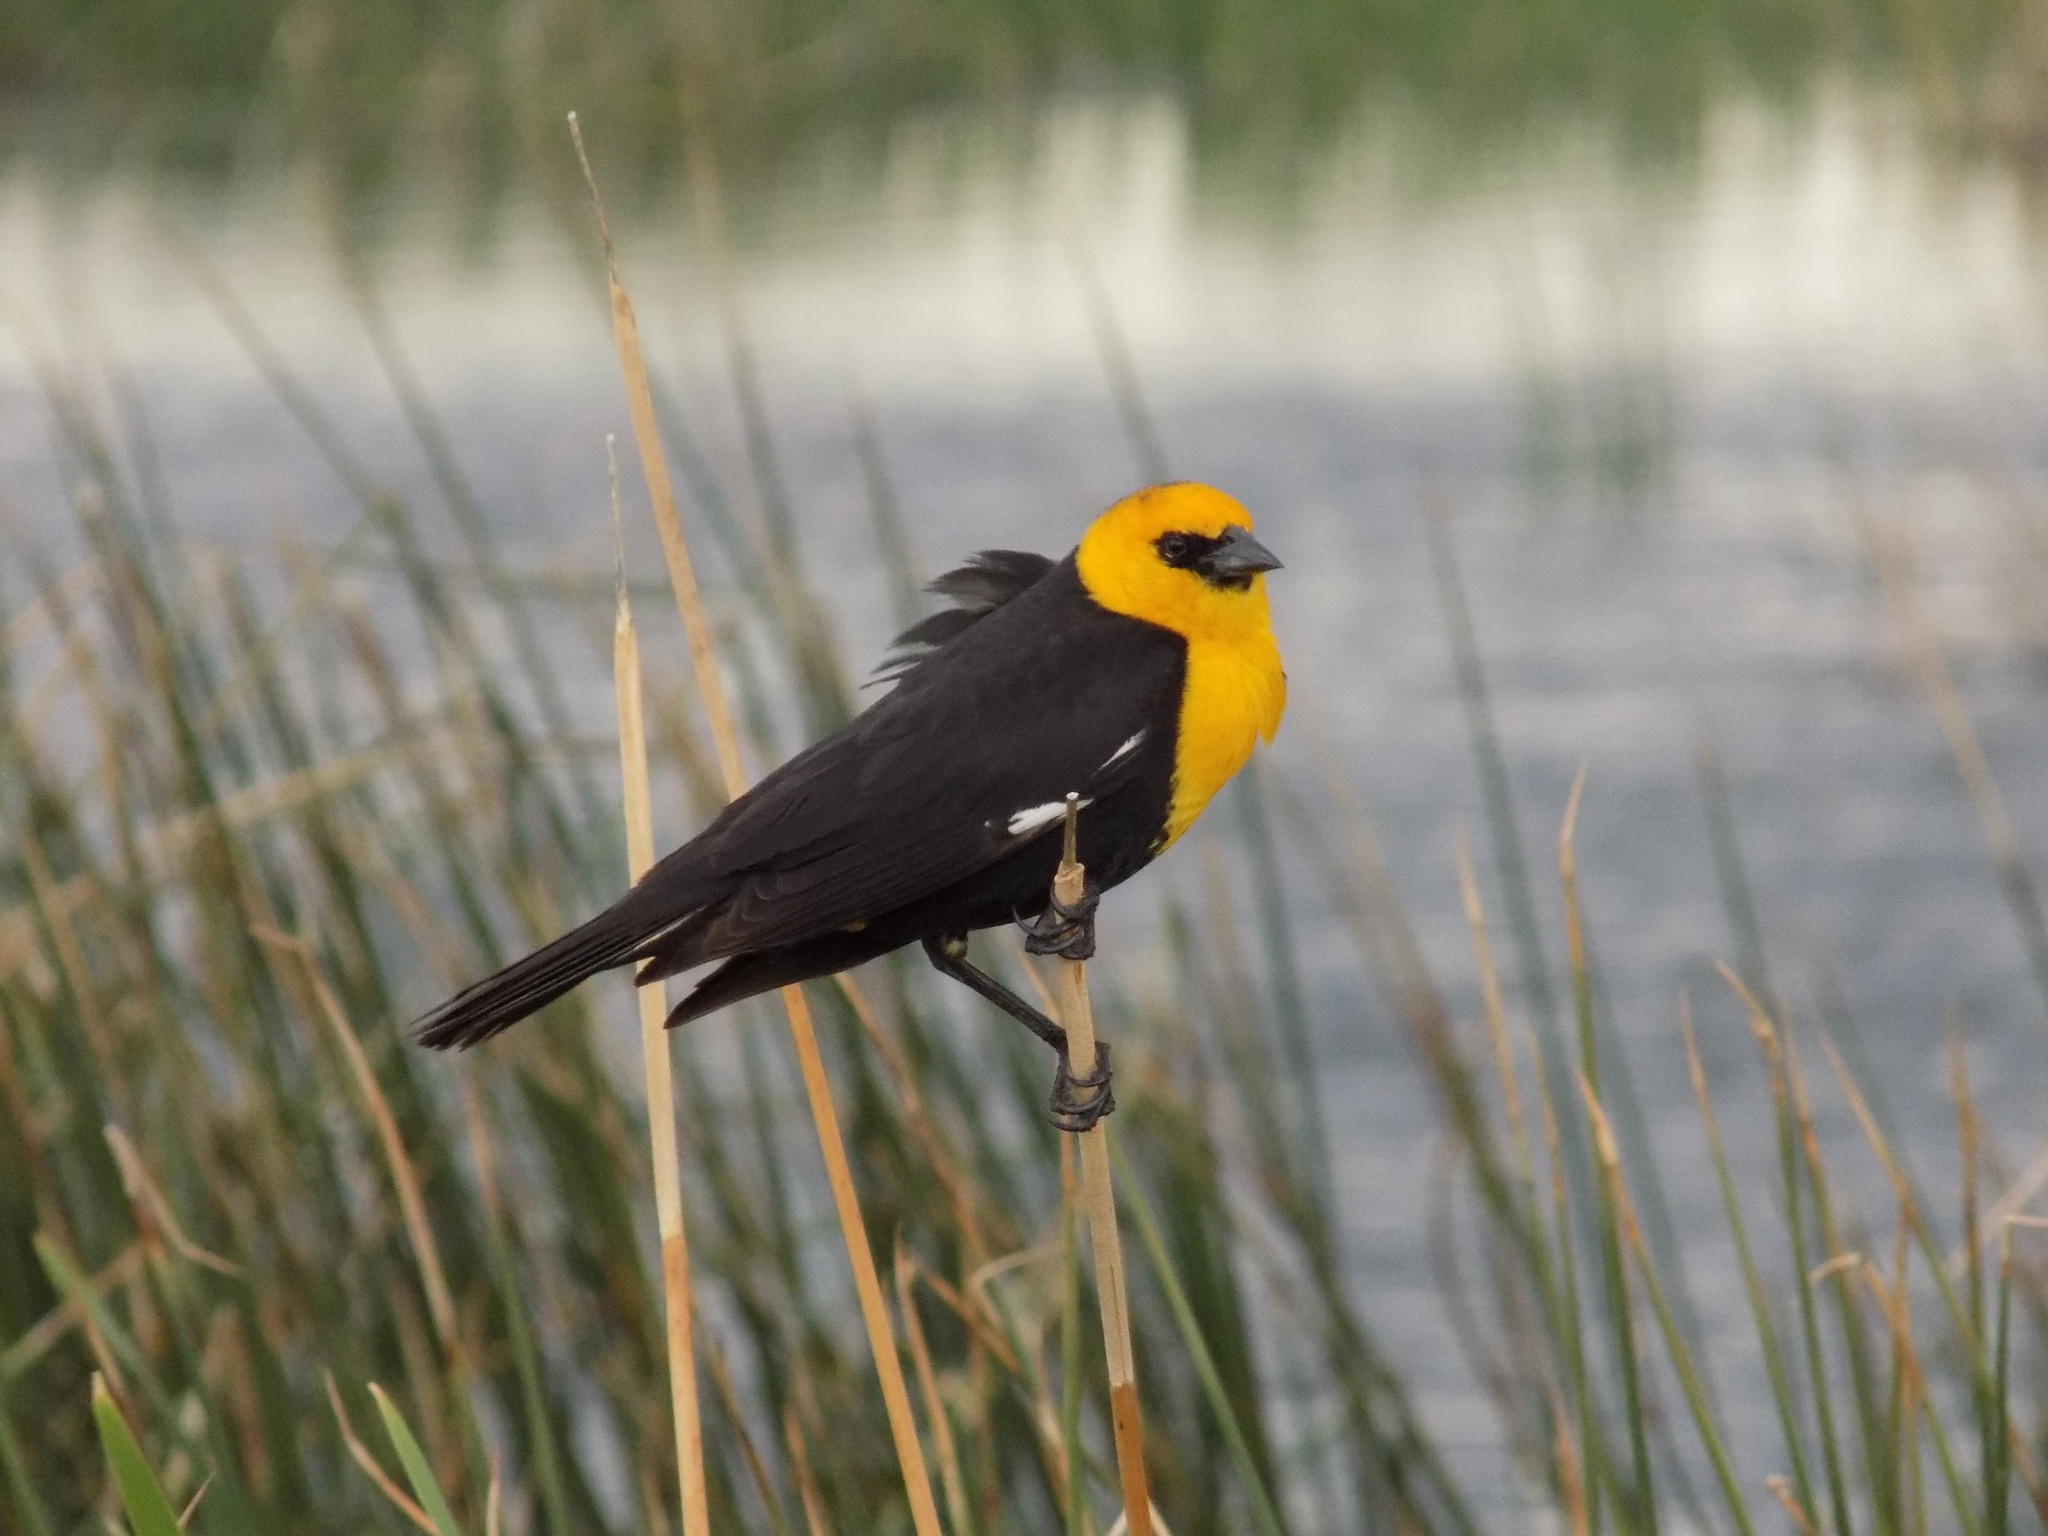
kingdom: Animalia
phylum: Chordata
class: Aves
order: Passeriformes
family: Icteridae
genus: Xanthocephalus
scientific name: Xanthocephalus xanthocephalus
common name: Yellow-headed blackbird
